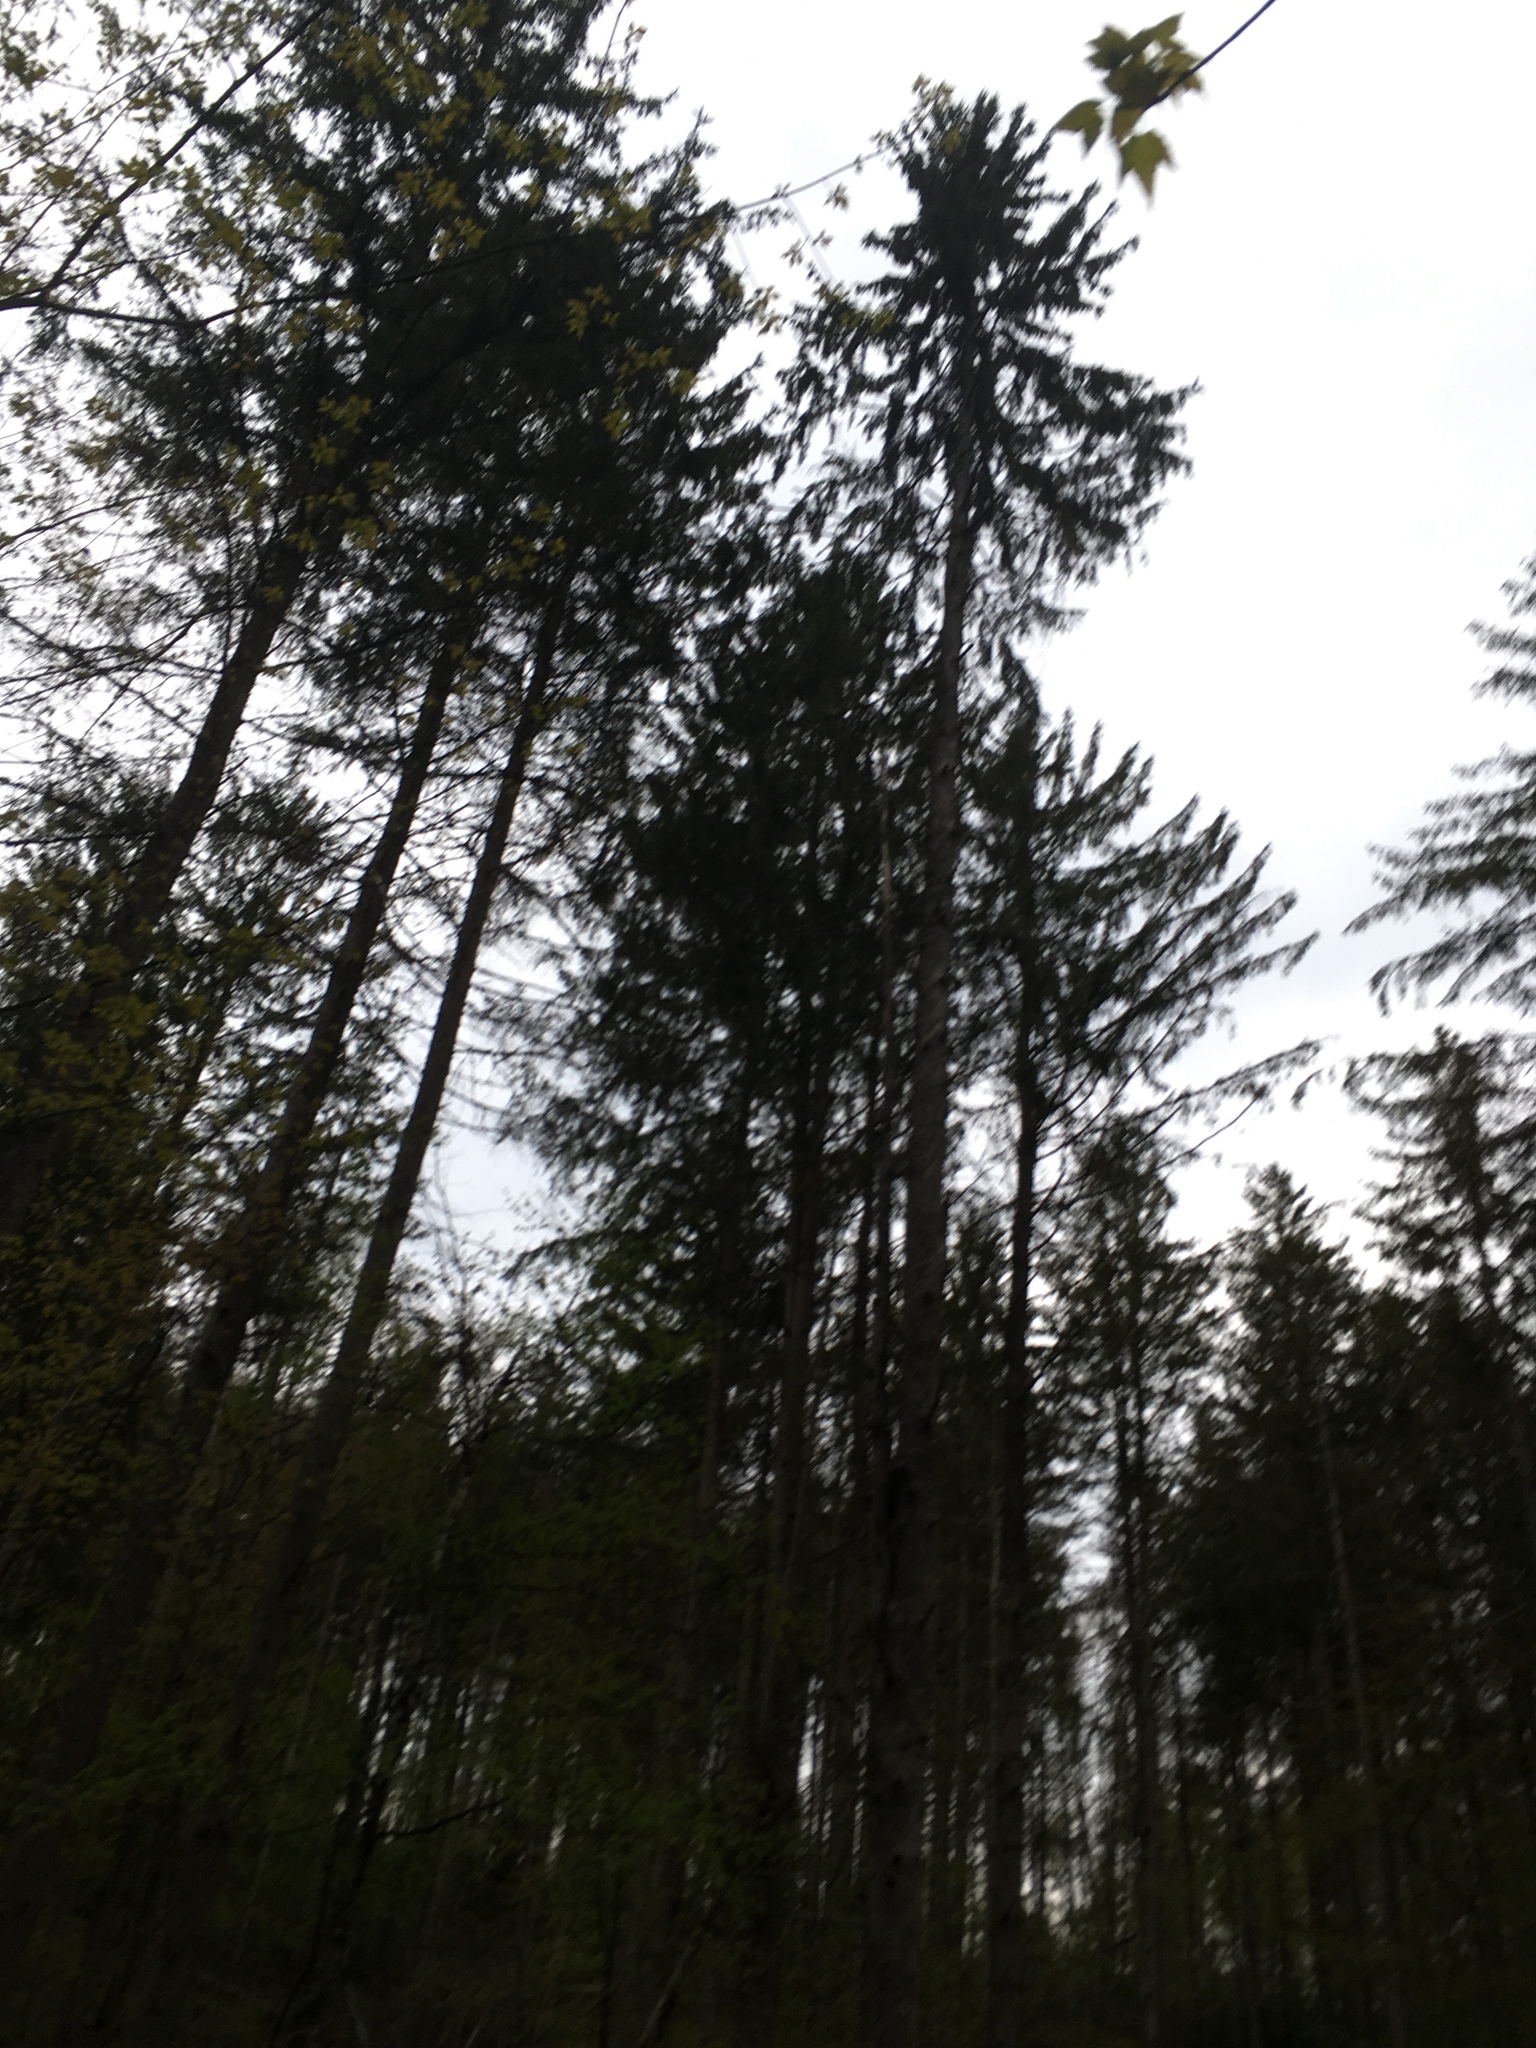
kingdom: Plantae
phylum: Tracheophyta
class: Pinopsida
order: Pinales
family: Pinaceae
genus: Picea
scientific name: Picea abies
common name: Norway spruce
